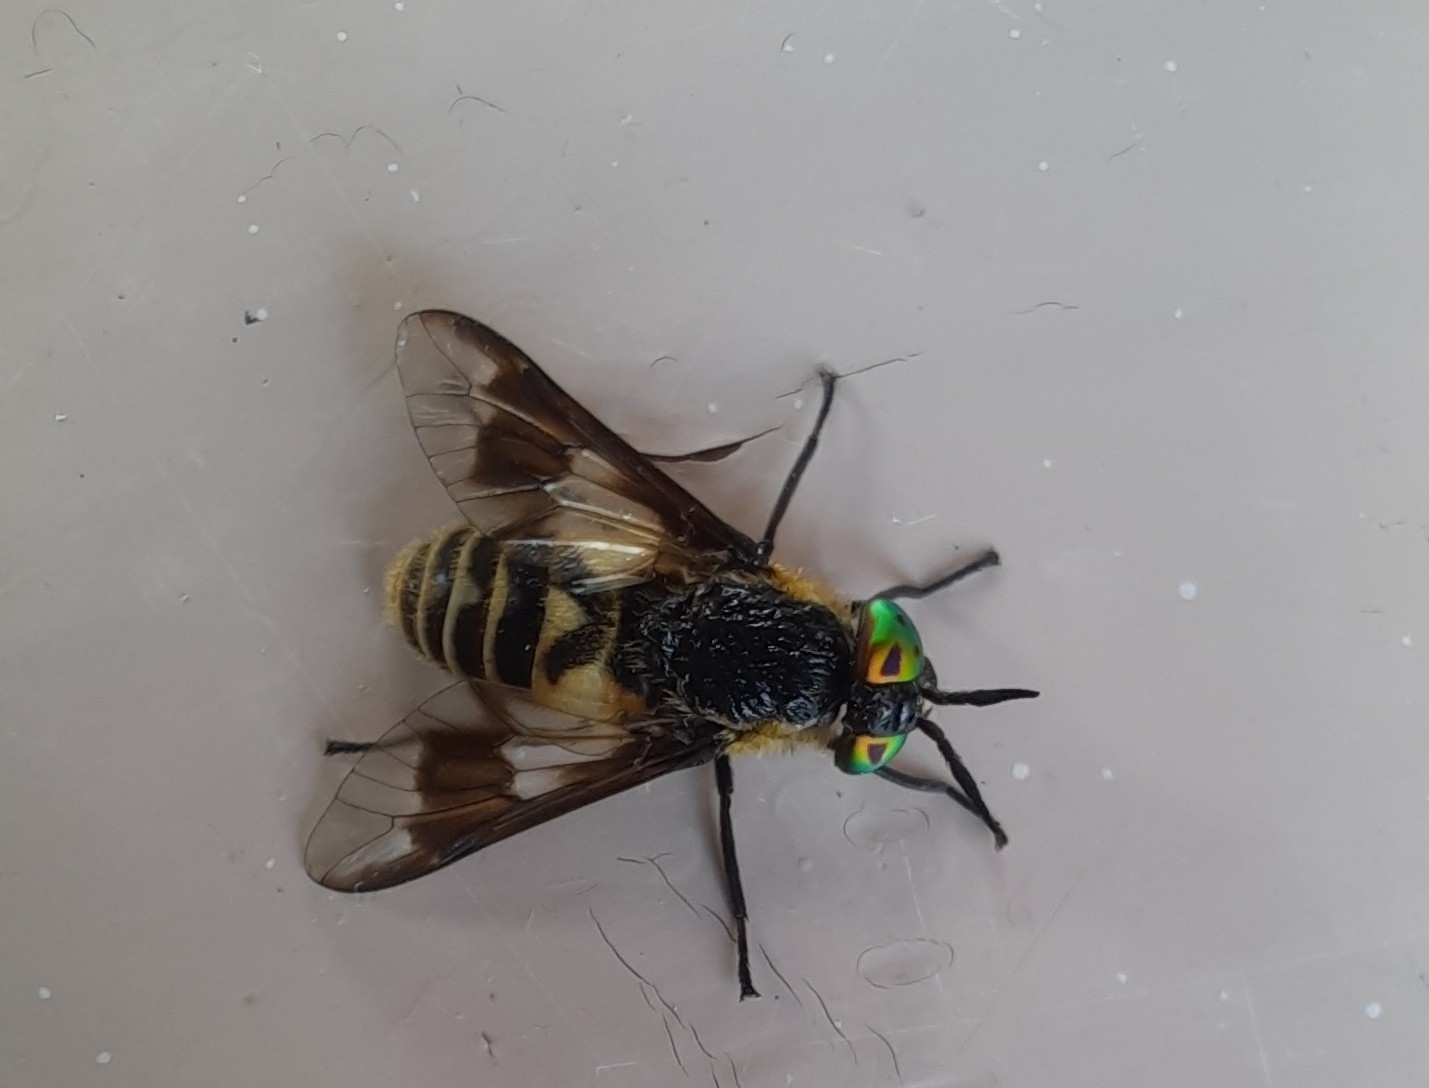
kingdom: Animalia
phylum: Arthropoda
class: Insecta
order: Diptera
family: Tabanidae
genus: Chrysops
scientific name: Chrysops divaricatus
